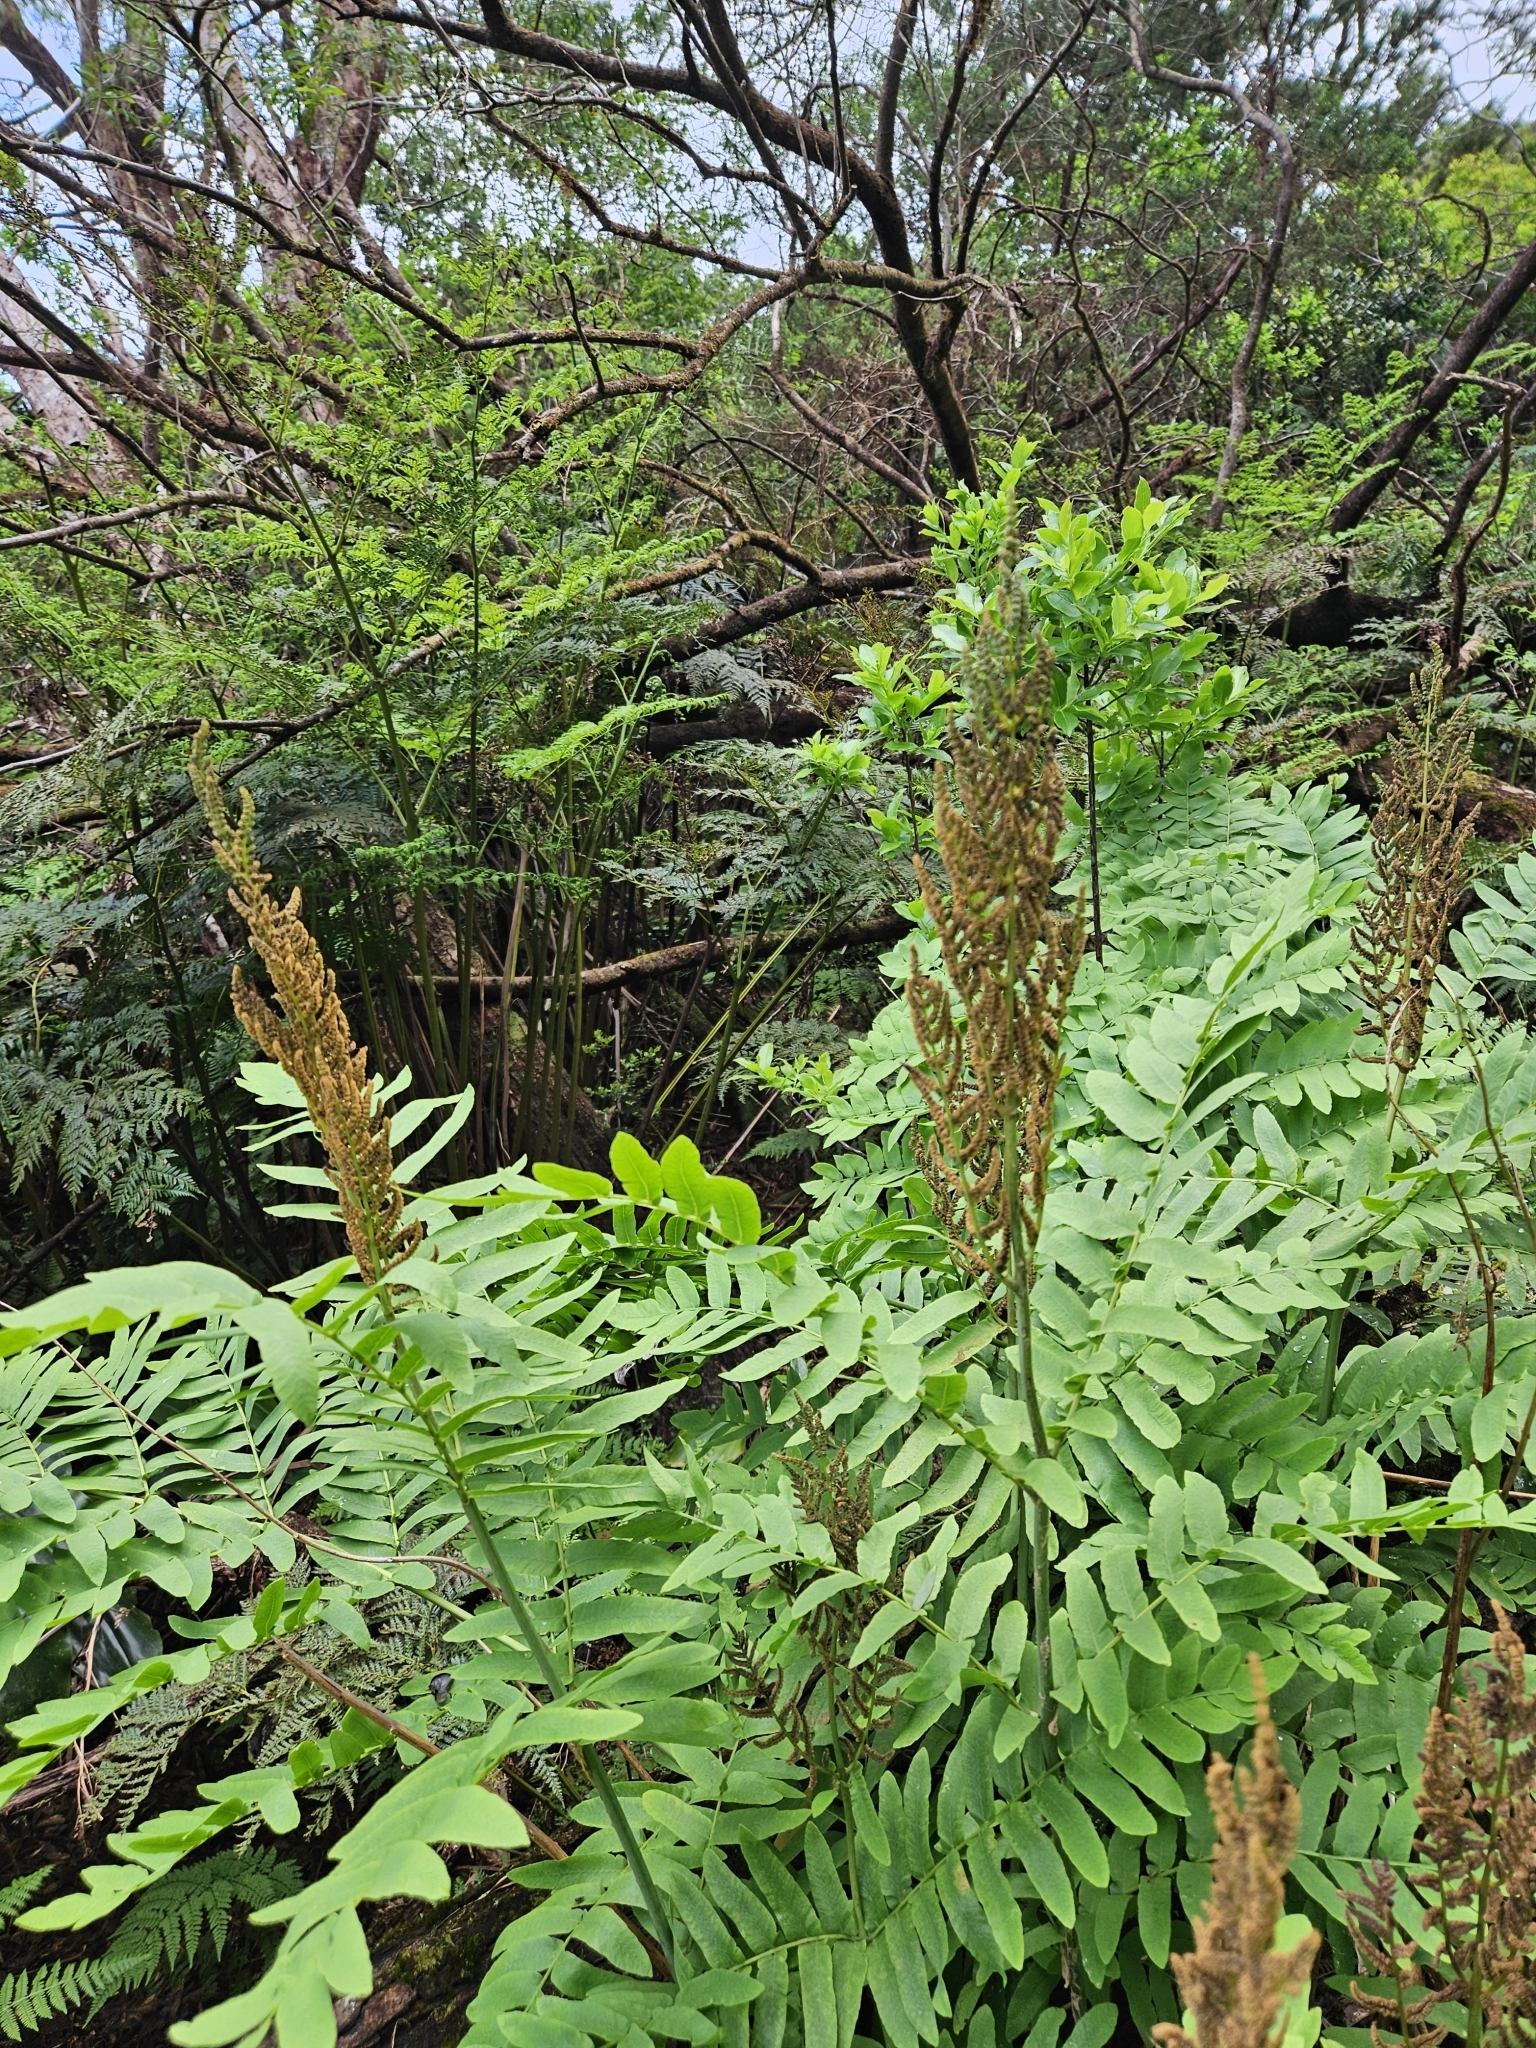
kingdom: Plantae
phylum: Tracheophyta
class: Polypodiopsida
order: Osmundales
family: Osmundaceae
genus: Osmunda
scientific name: Osmunda regalis
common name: Royal fern
